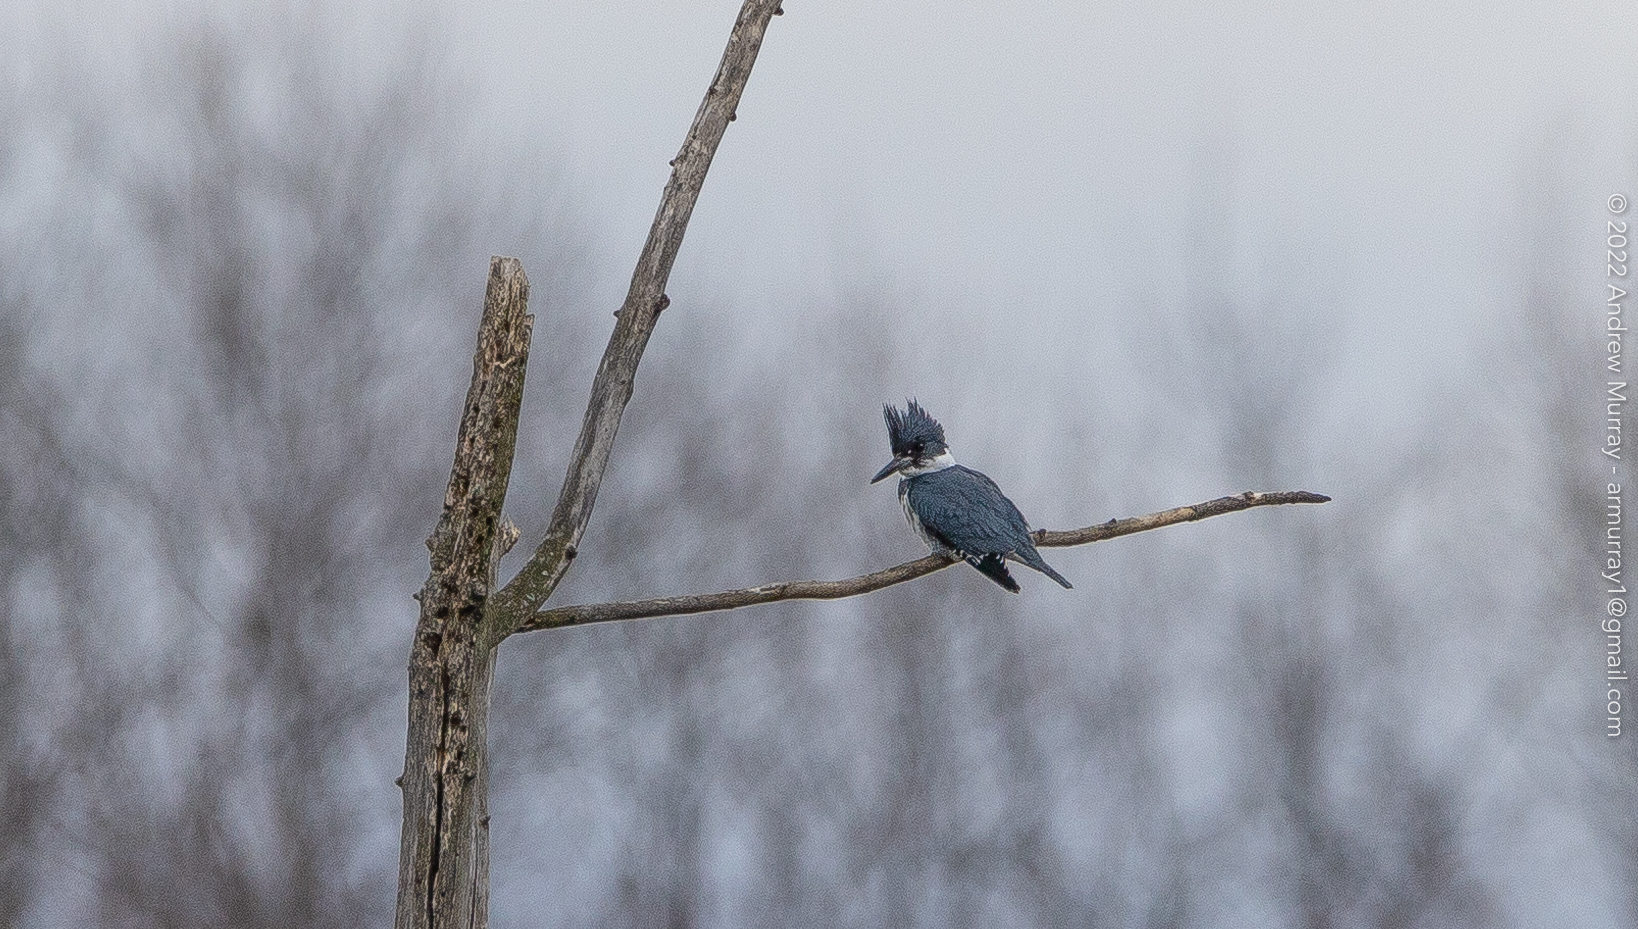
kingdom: Animalia
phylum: Chordata
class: Aves
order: Coraciiformes
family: Alcedinidae
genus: Megaceryle
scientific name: Megaceryle alcyon
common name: Belted kingfisher
